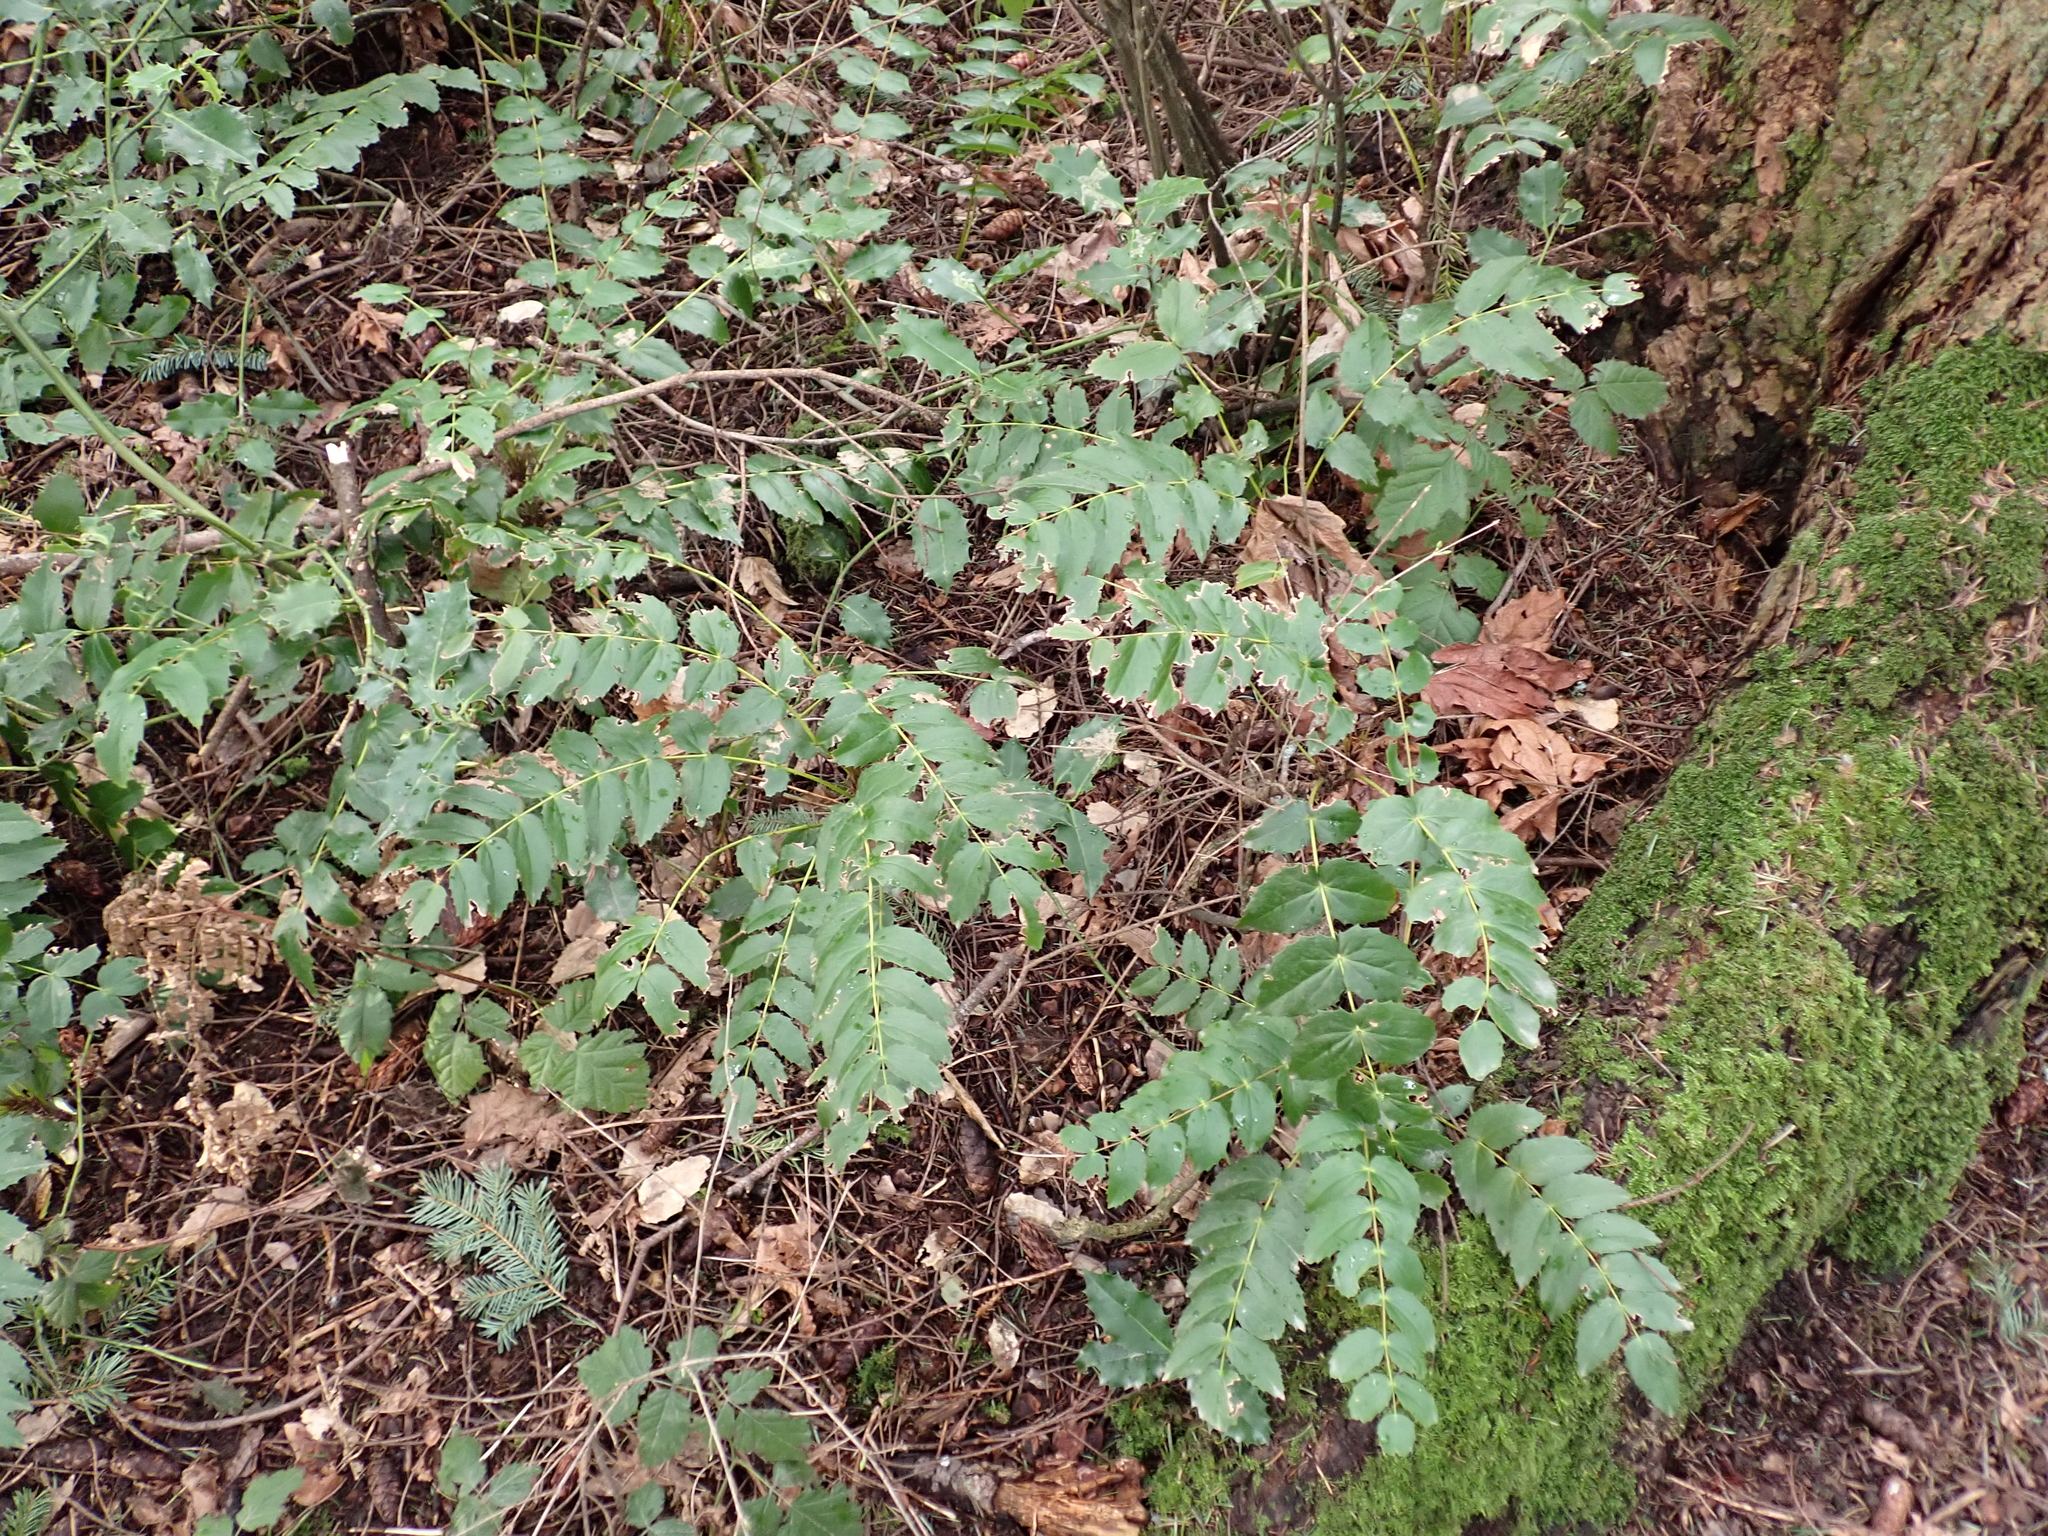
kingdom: Plantae
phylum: Tracheophyta
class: Magnoliopsida
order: Ranunculales
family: Berberidaceae
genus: Mahonia
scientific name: Mahonia nervosa
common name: Cascade oregon-grape
